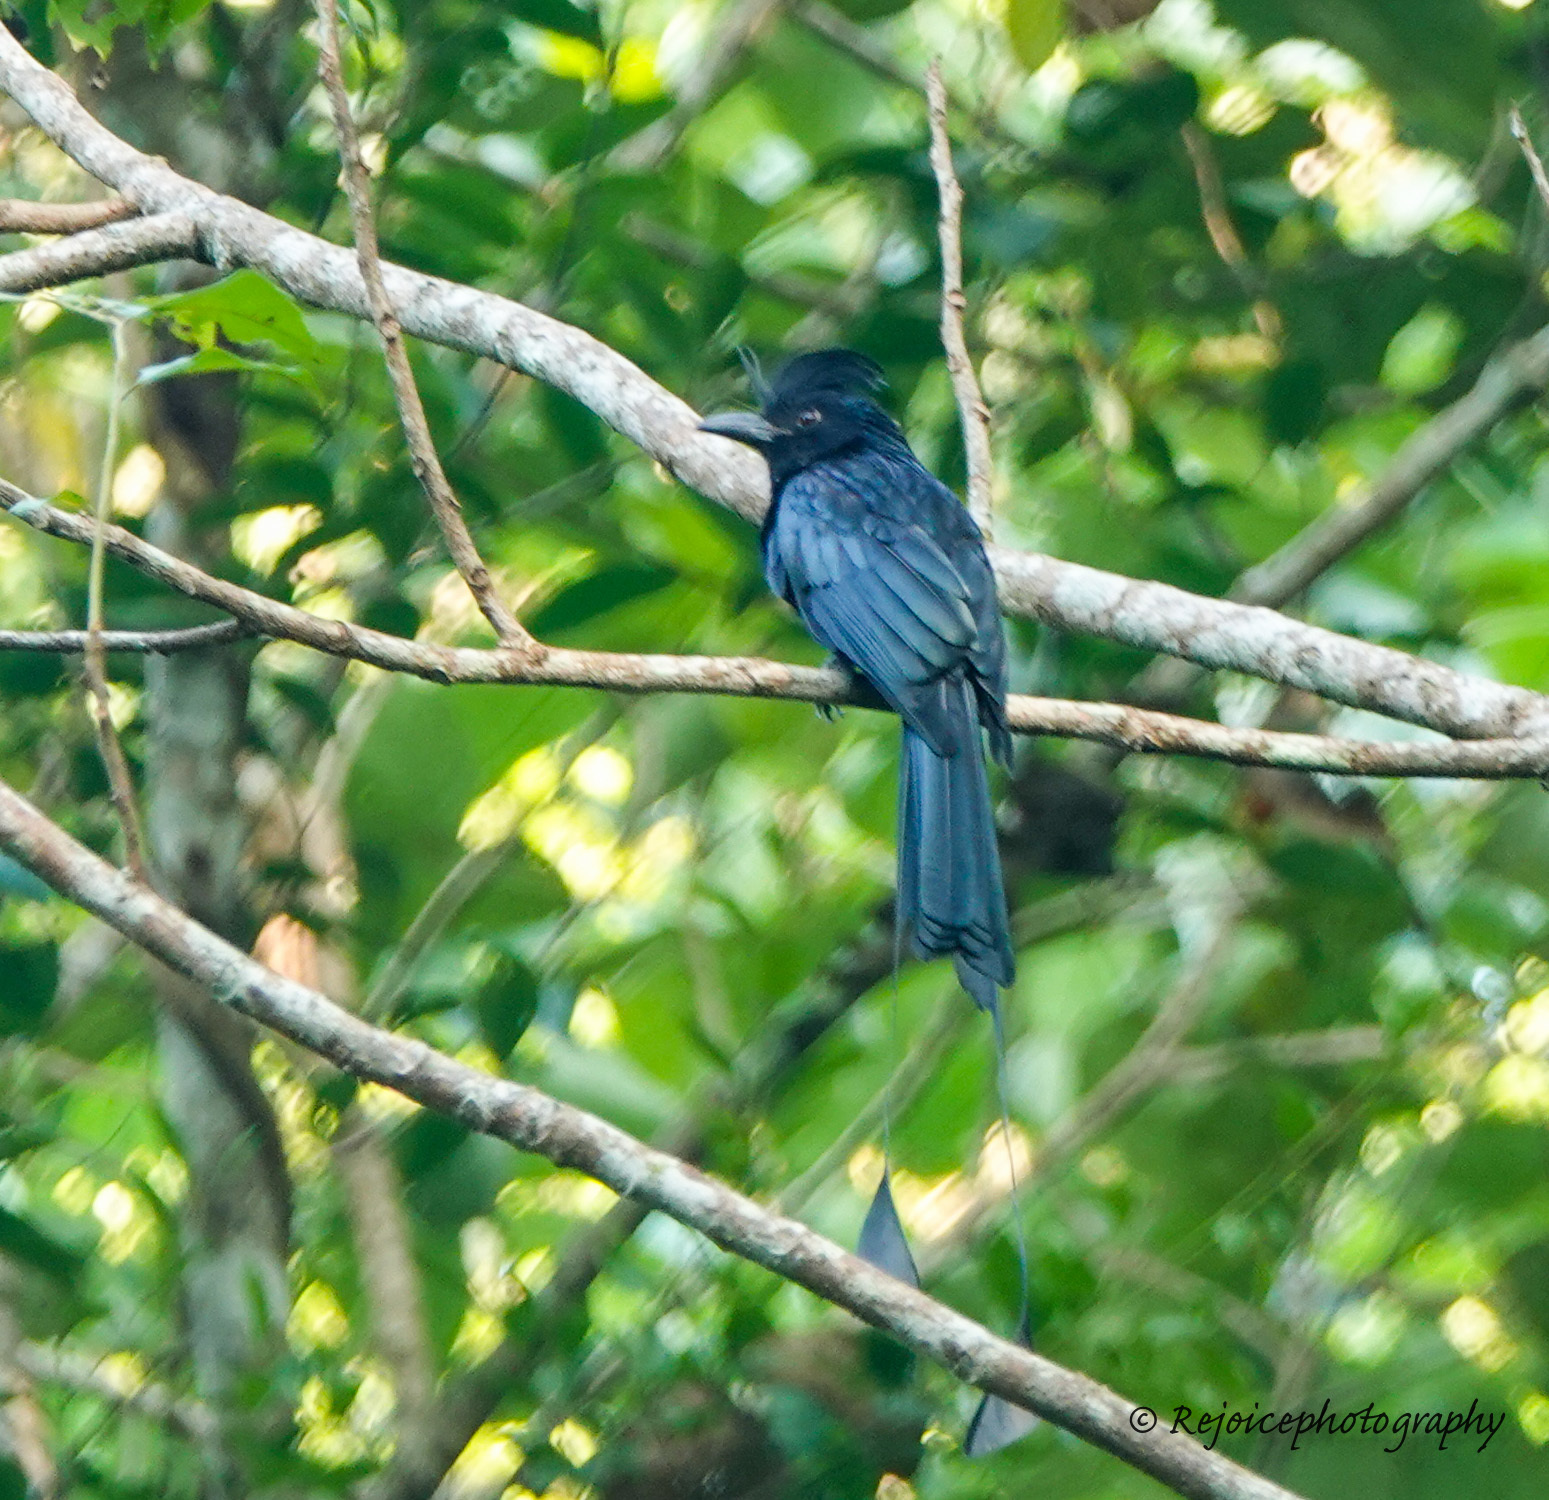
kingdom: Animalia
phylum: Chordata
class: Aves
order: Passeriformes
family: Dicruridae
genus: Dicrurus
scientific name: Dicrurus paradiseus
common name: Greater racket-tailed drongo
